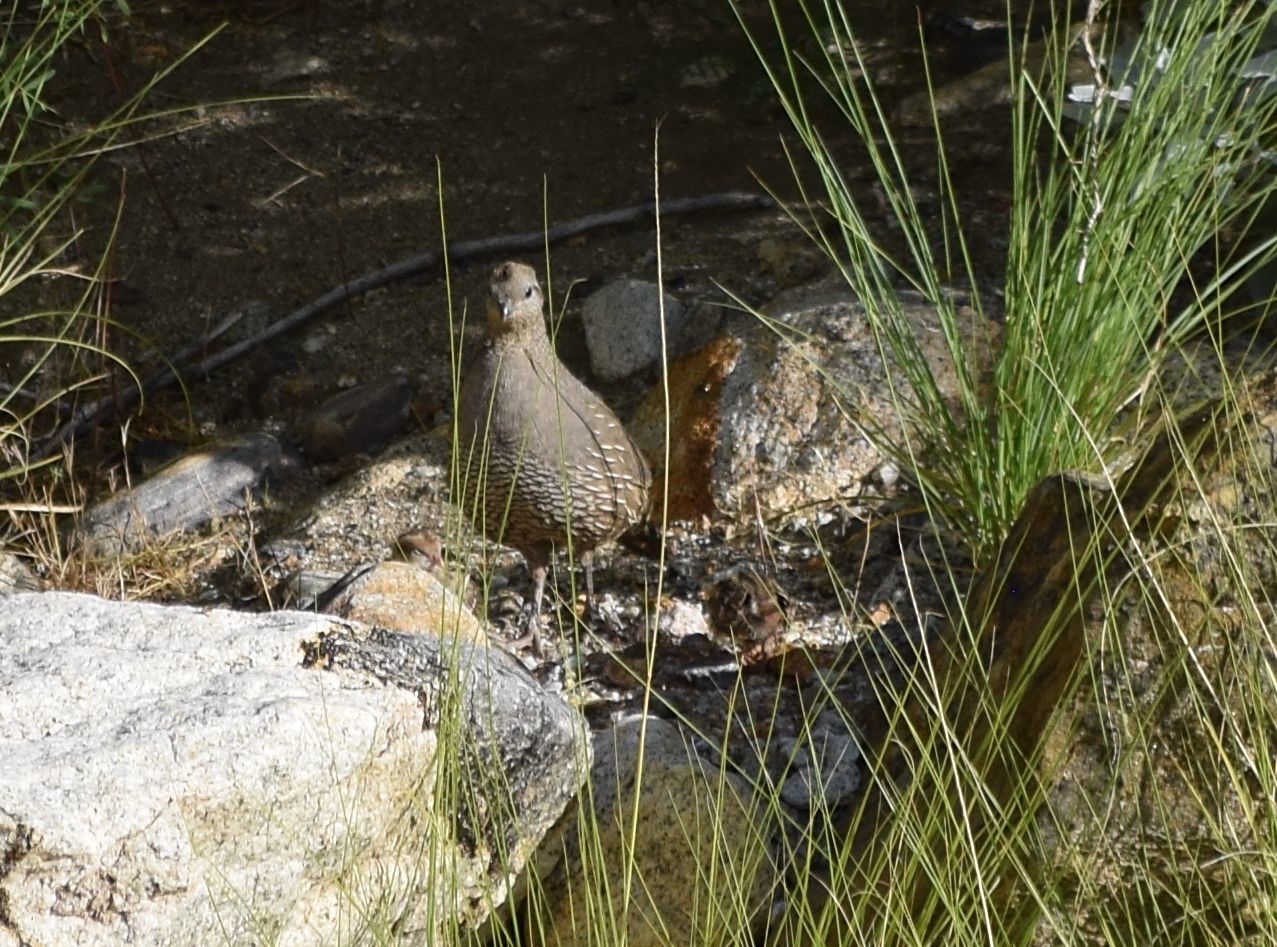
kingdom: Animalia
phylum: Chordata
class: Aves
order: Galliformes
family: Odontophoridae
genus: Callipepla
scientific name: Callipepla californica
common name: California quail
